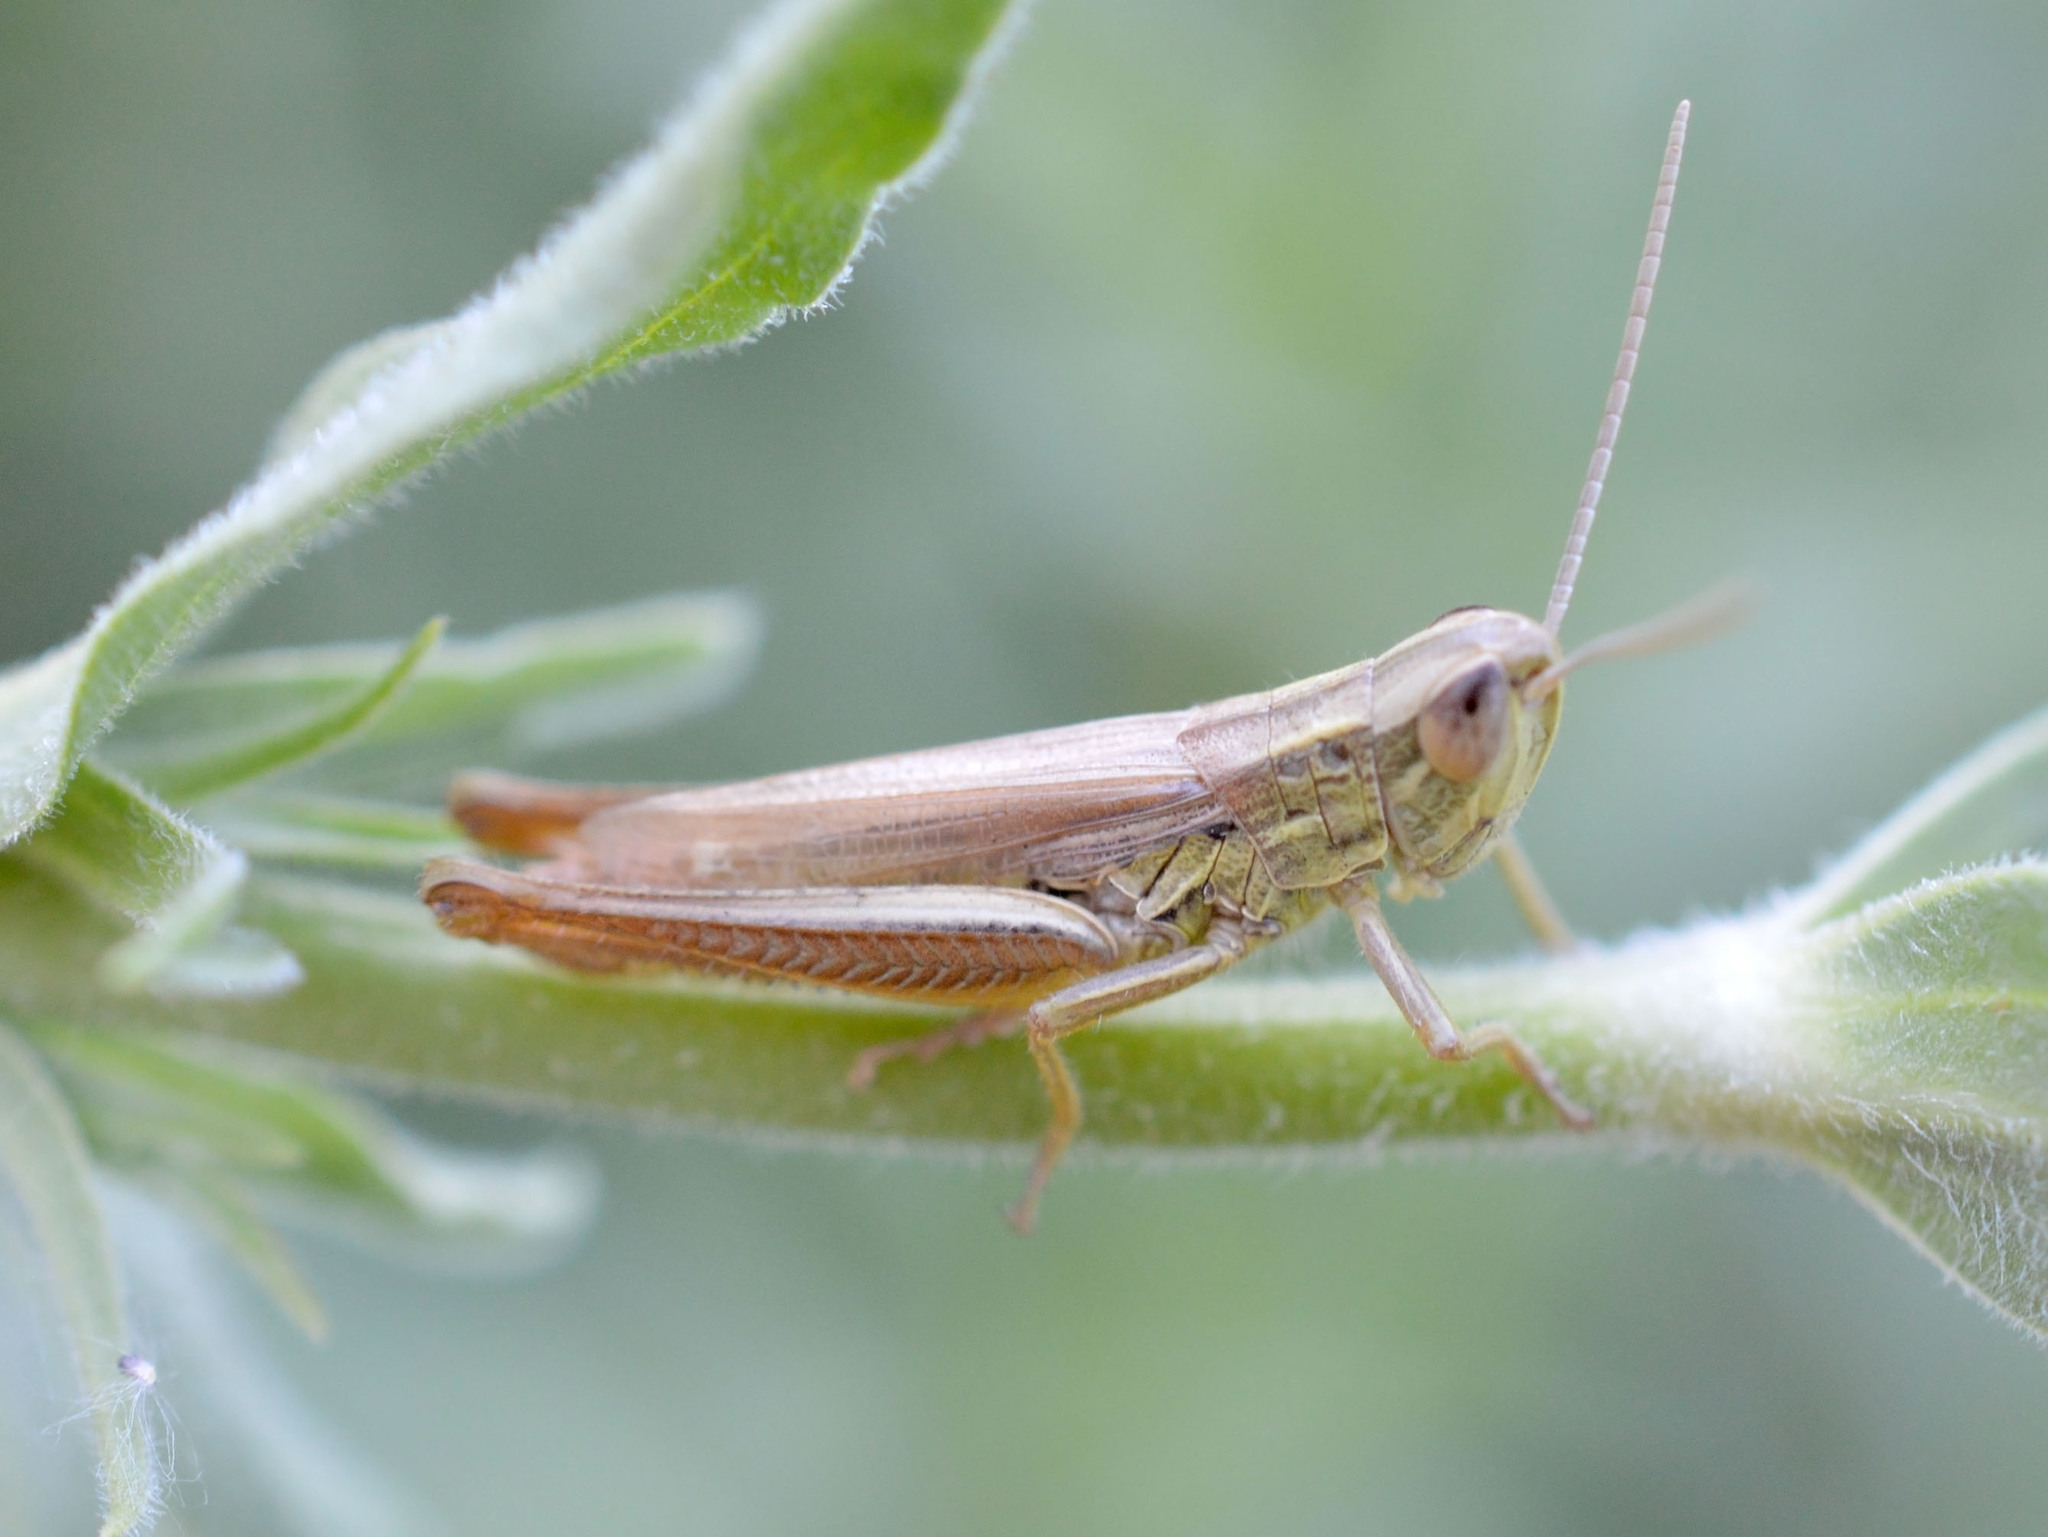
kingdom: Animalia
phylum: Arthropoda
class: Insecta
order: Orthoptera
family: Acrididae
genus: Euchorthippus
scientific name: Euchorthippus declivus
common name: Common straw grasshopper
